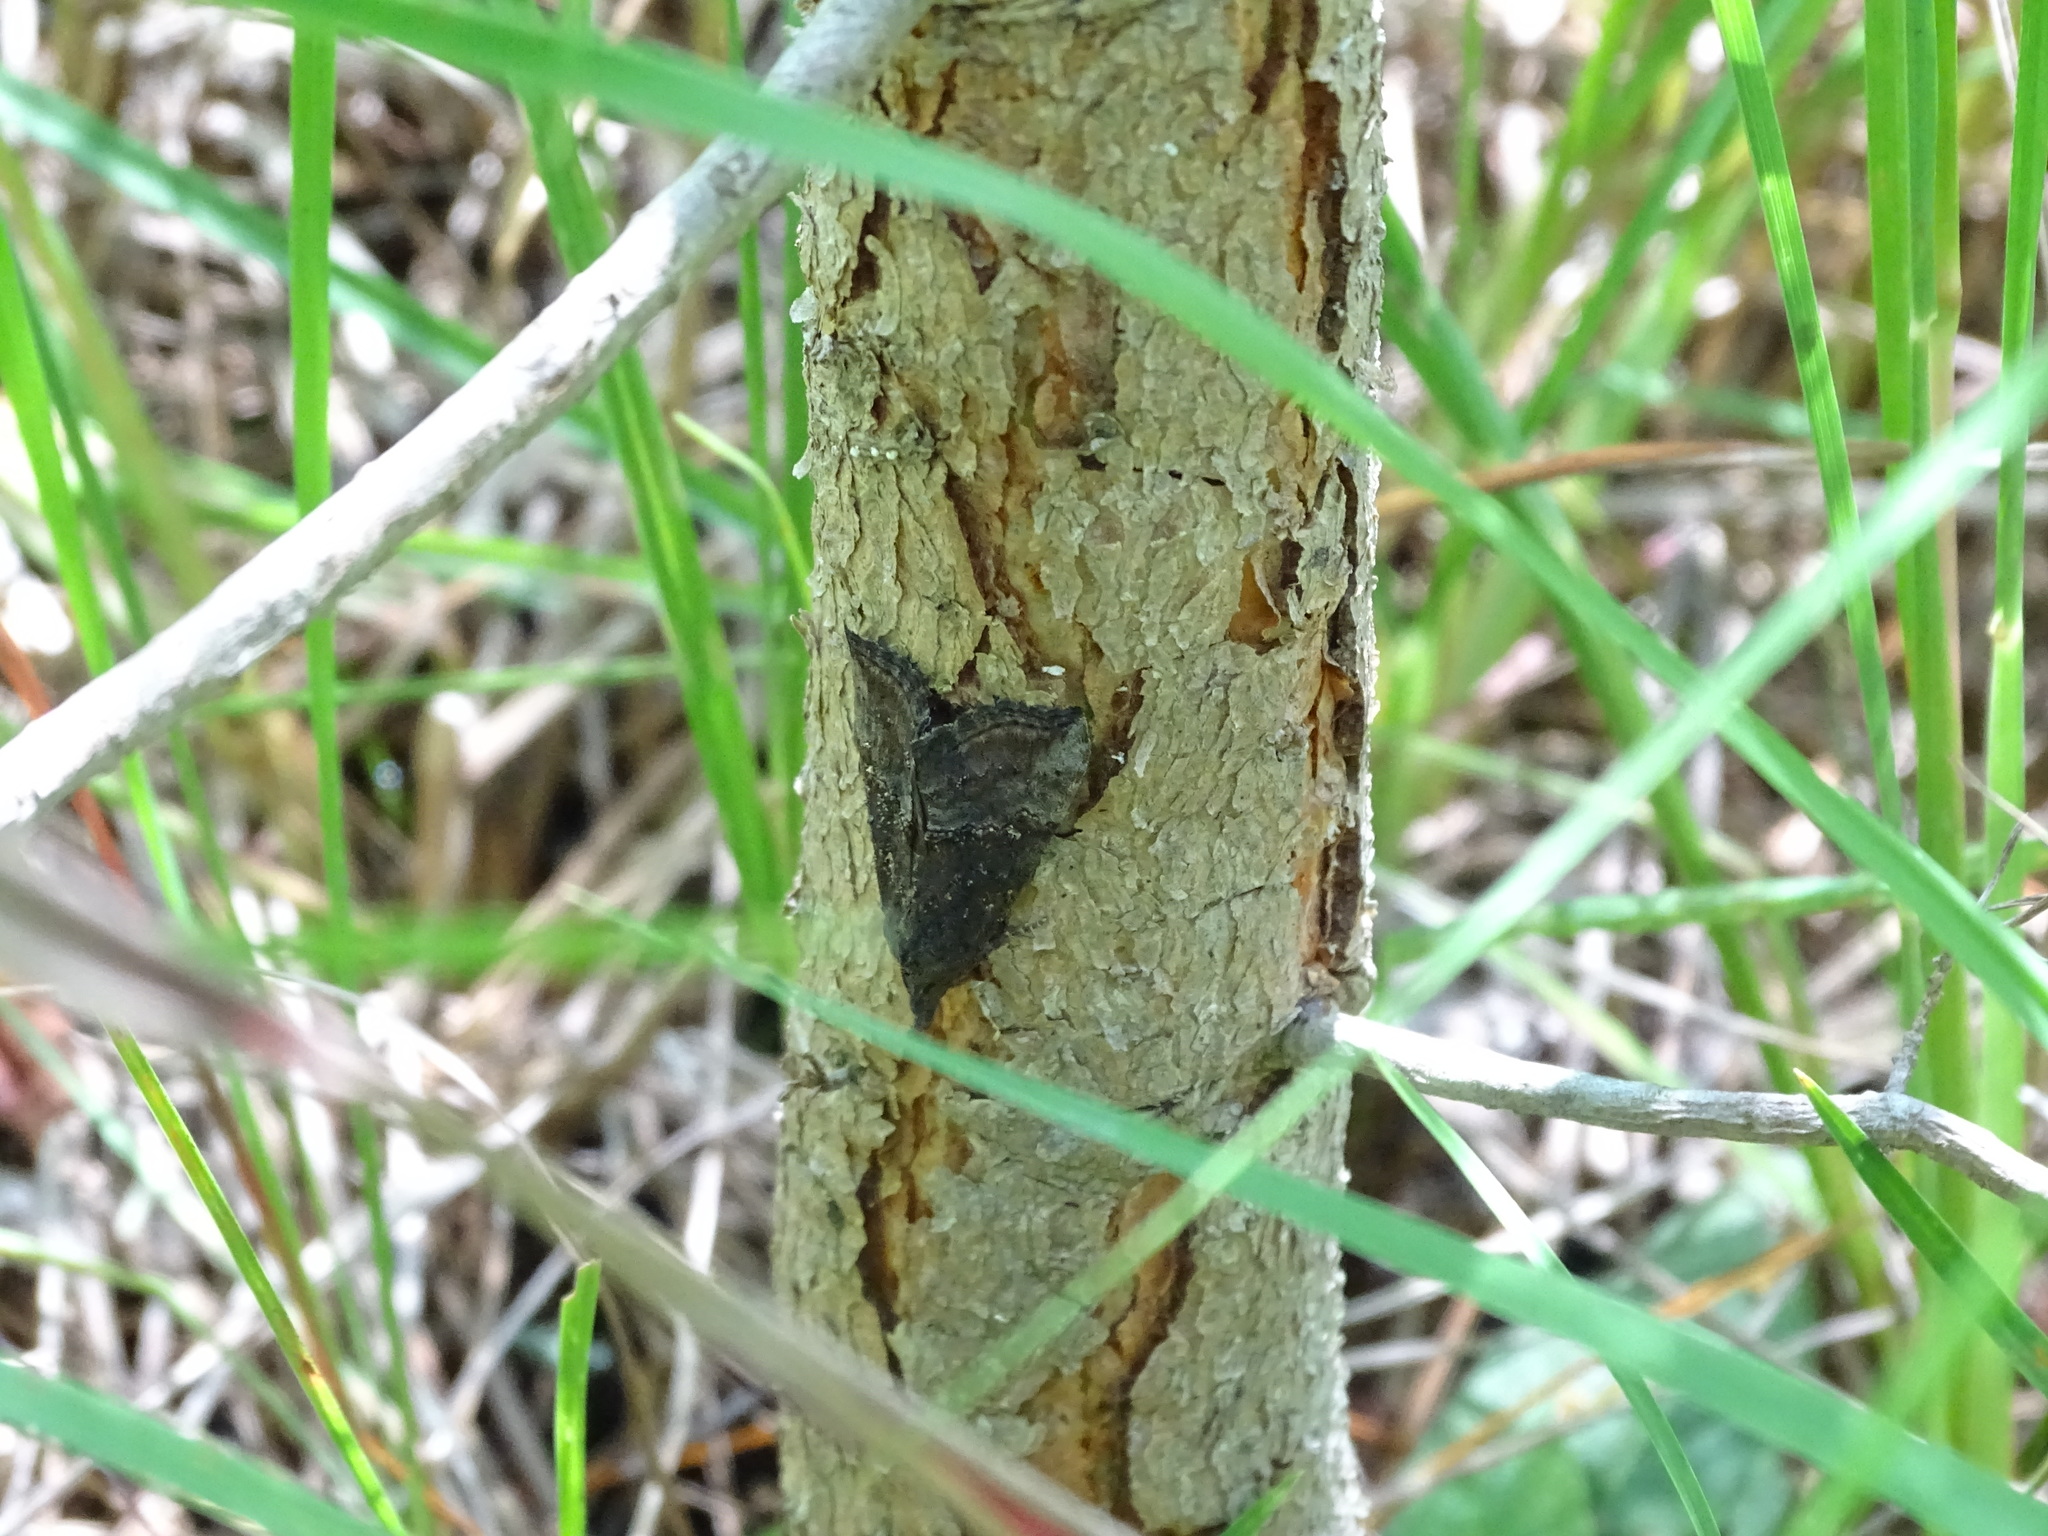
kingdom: Animalia
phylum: Arthropoda
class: Insecta
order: Lepidoptera
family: Erebidae
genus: Hypena
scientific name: Hypena scabra
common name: Green cloverworm
